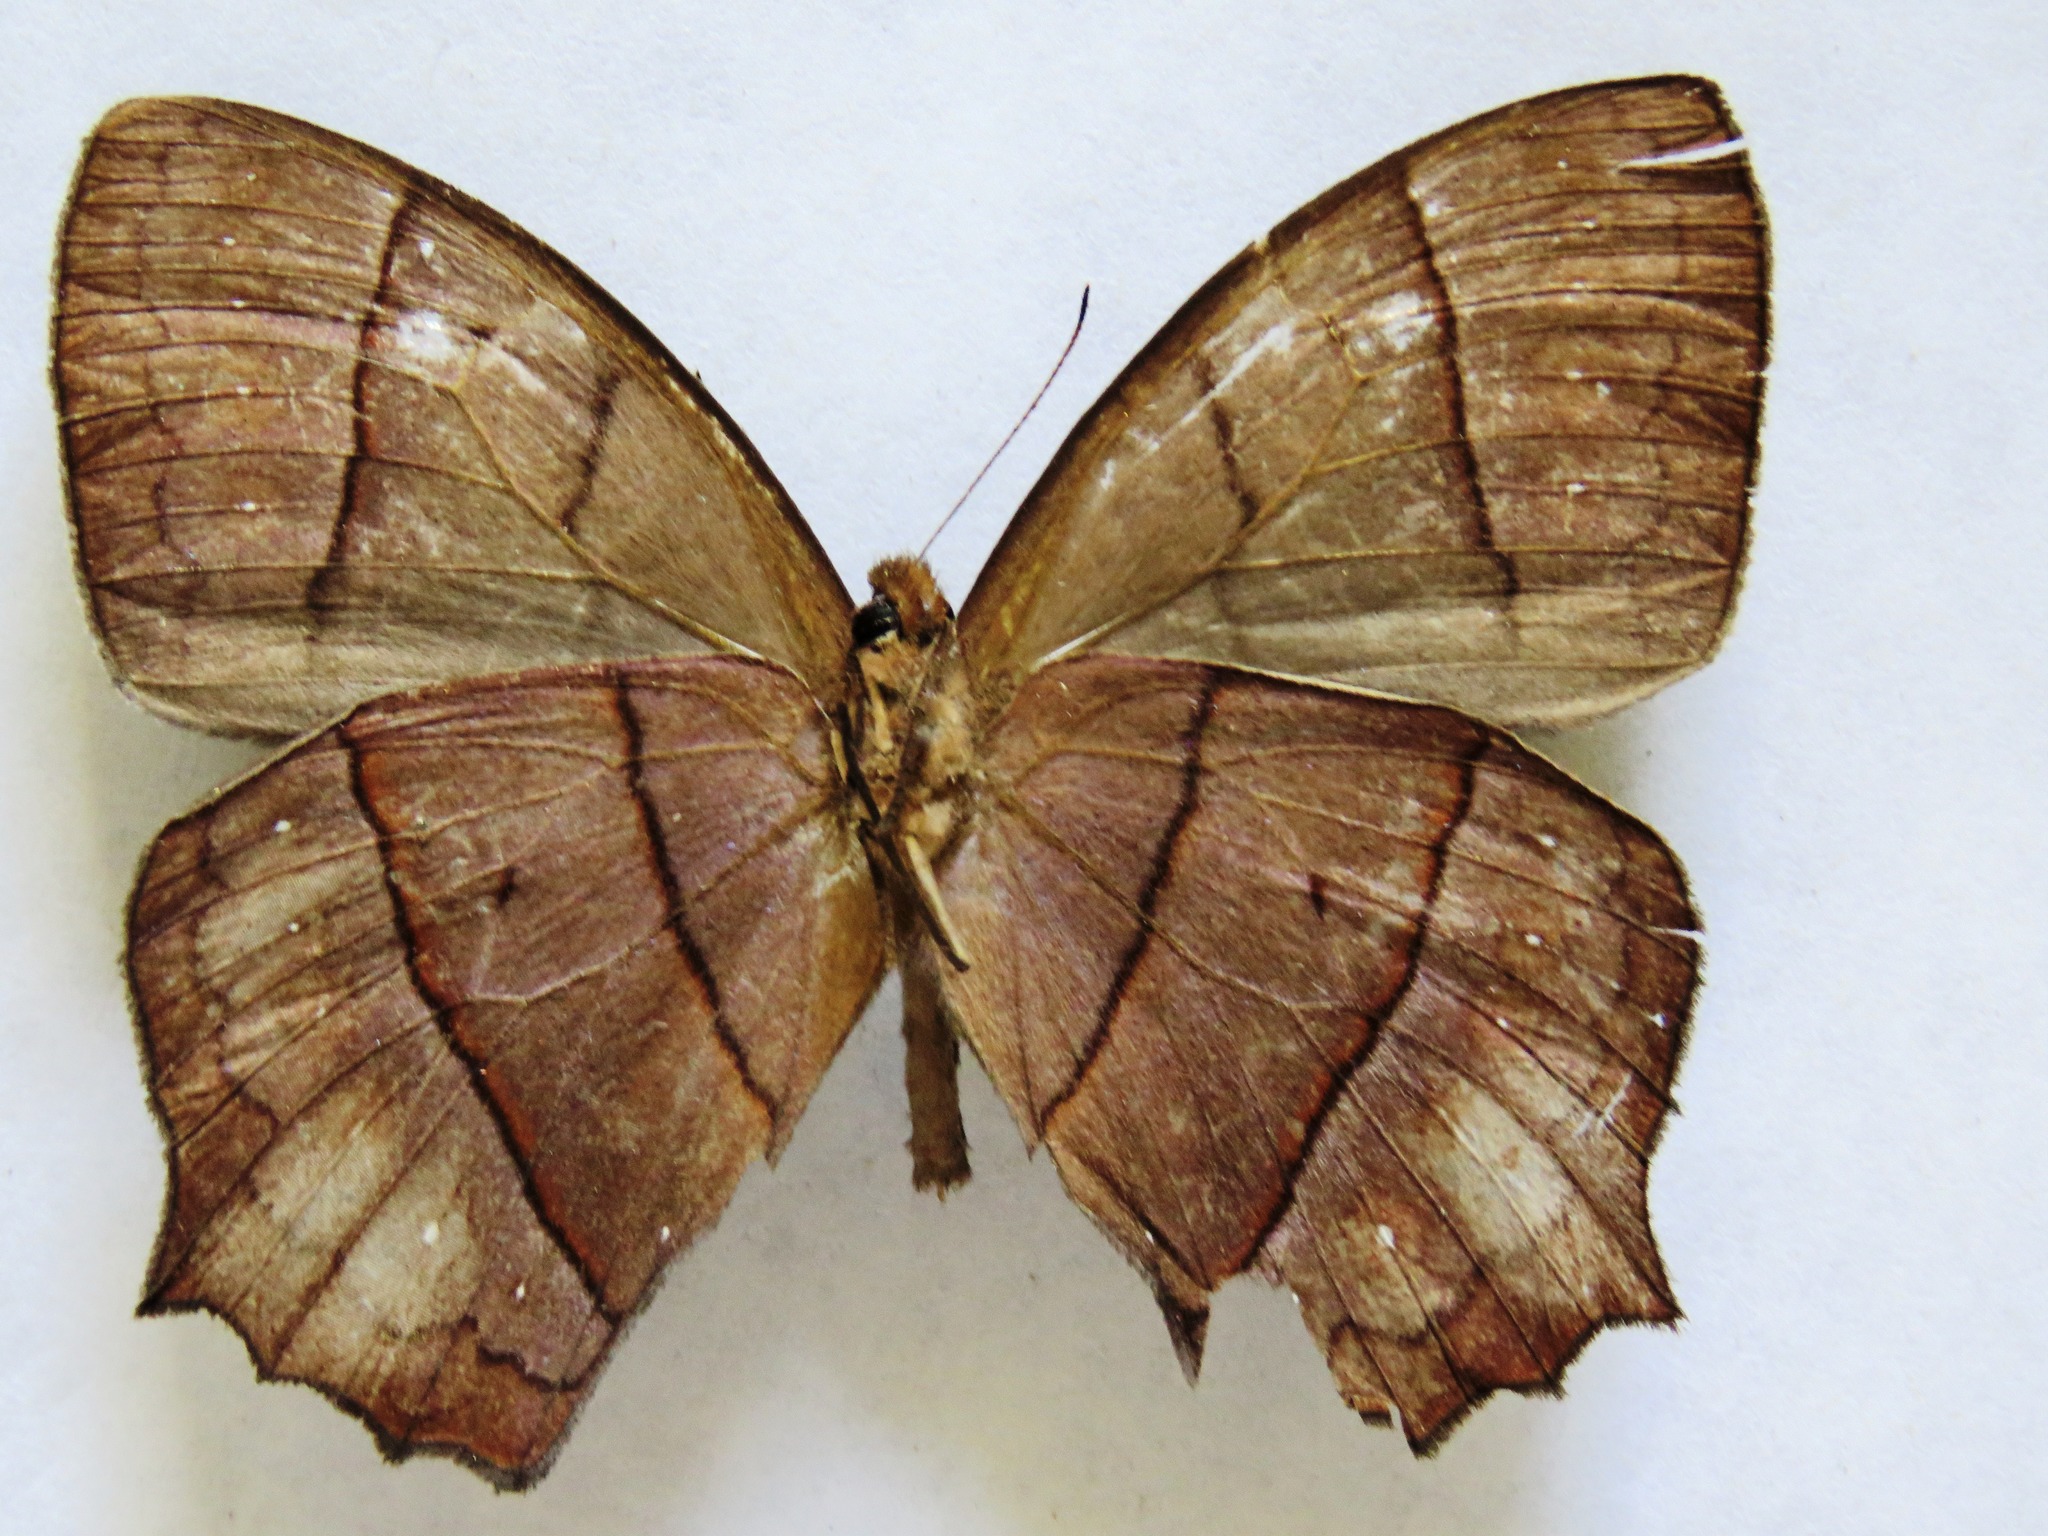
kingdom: Animalia
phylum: Arthropoda
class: Insecta
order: Lepidoptera
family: Nymphalidae
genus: Taygetis
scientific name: Taygetis virgilia
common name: Stub-tailed satyr
